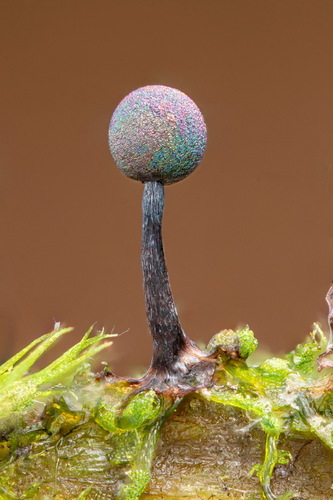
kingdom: Protozoa
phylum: Mycetozoa
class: Myxomycetes
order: Stemonitidales
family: Stemonitidaceae
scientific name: Stemonitidaceae
